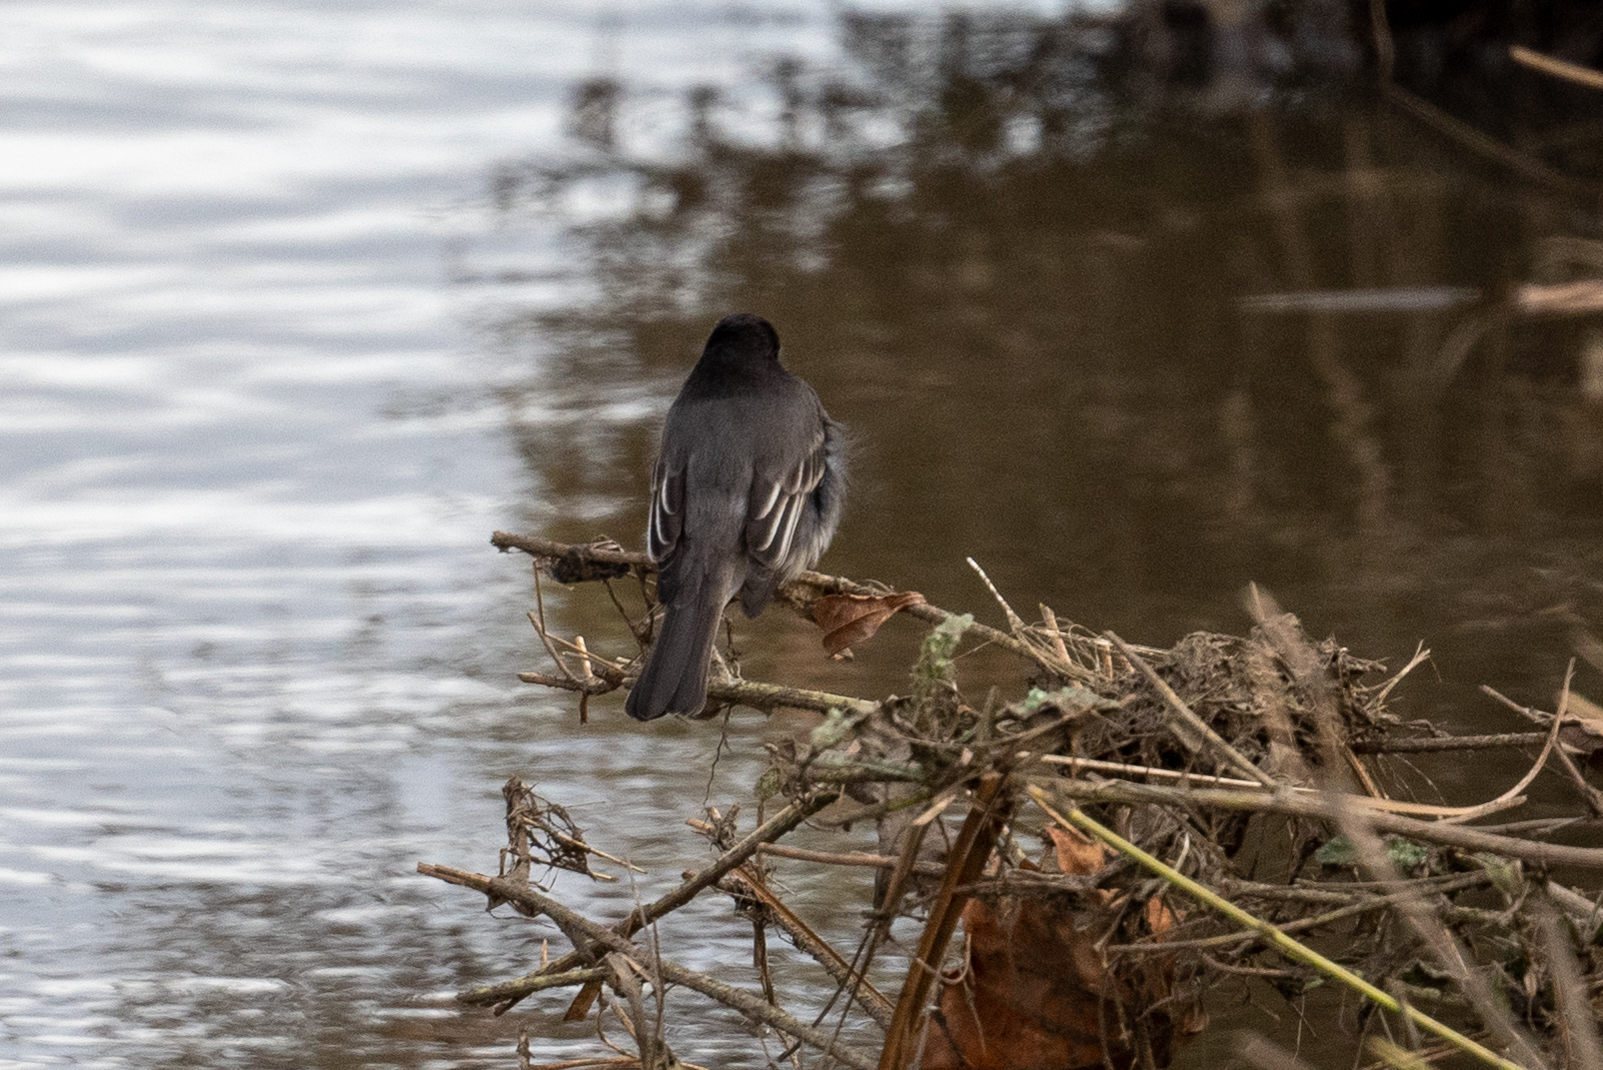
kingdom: Animalia
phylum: Chordata
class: Aves
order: Passeriformes
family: Tyrannidae
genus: Sayornis
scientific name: Sayornis nigricans
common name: Black phoebe
